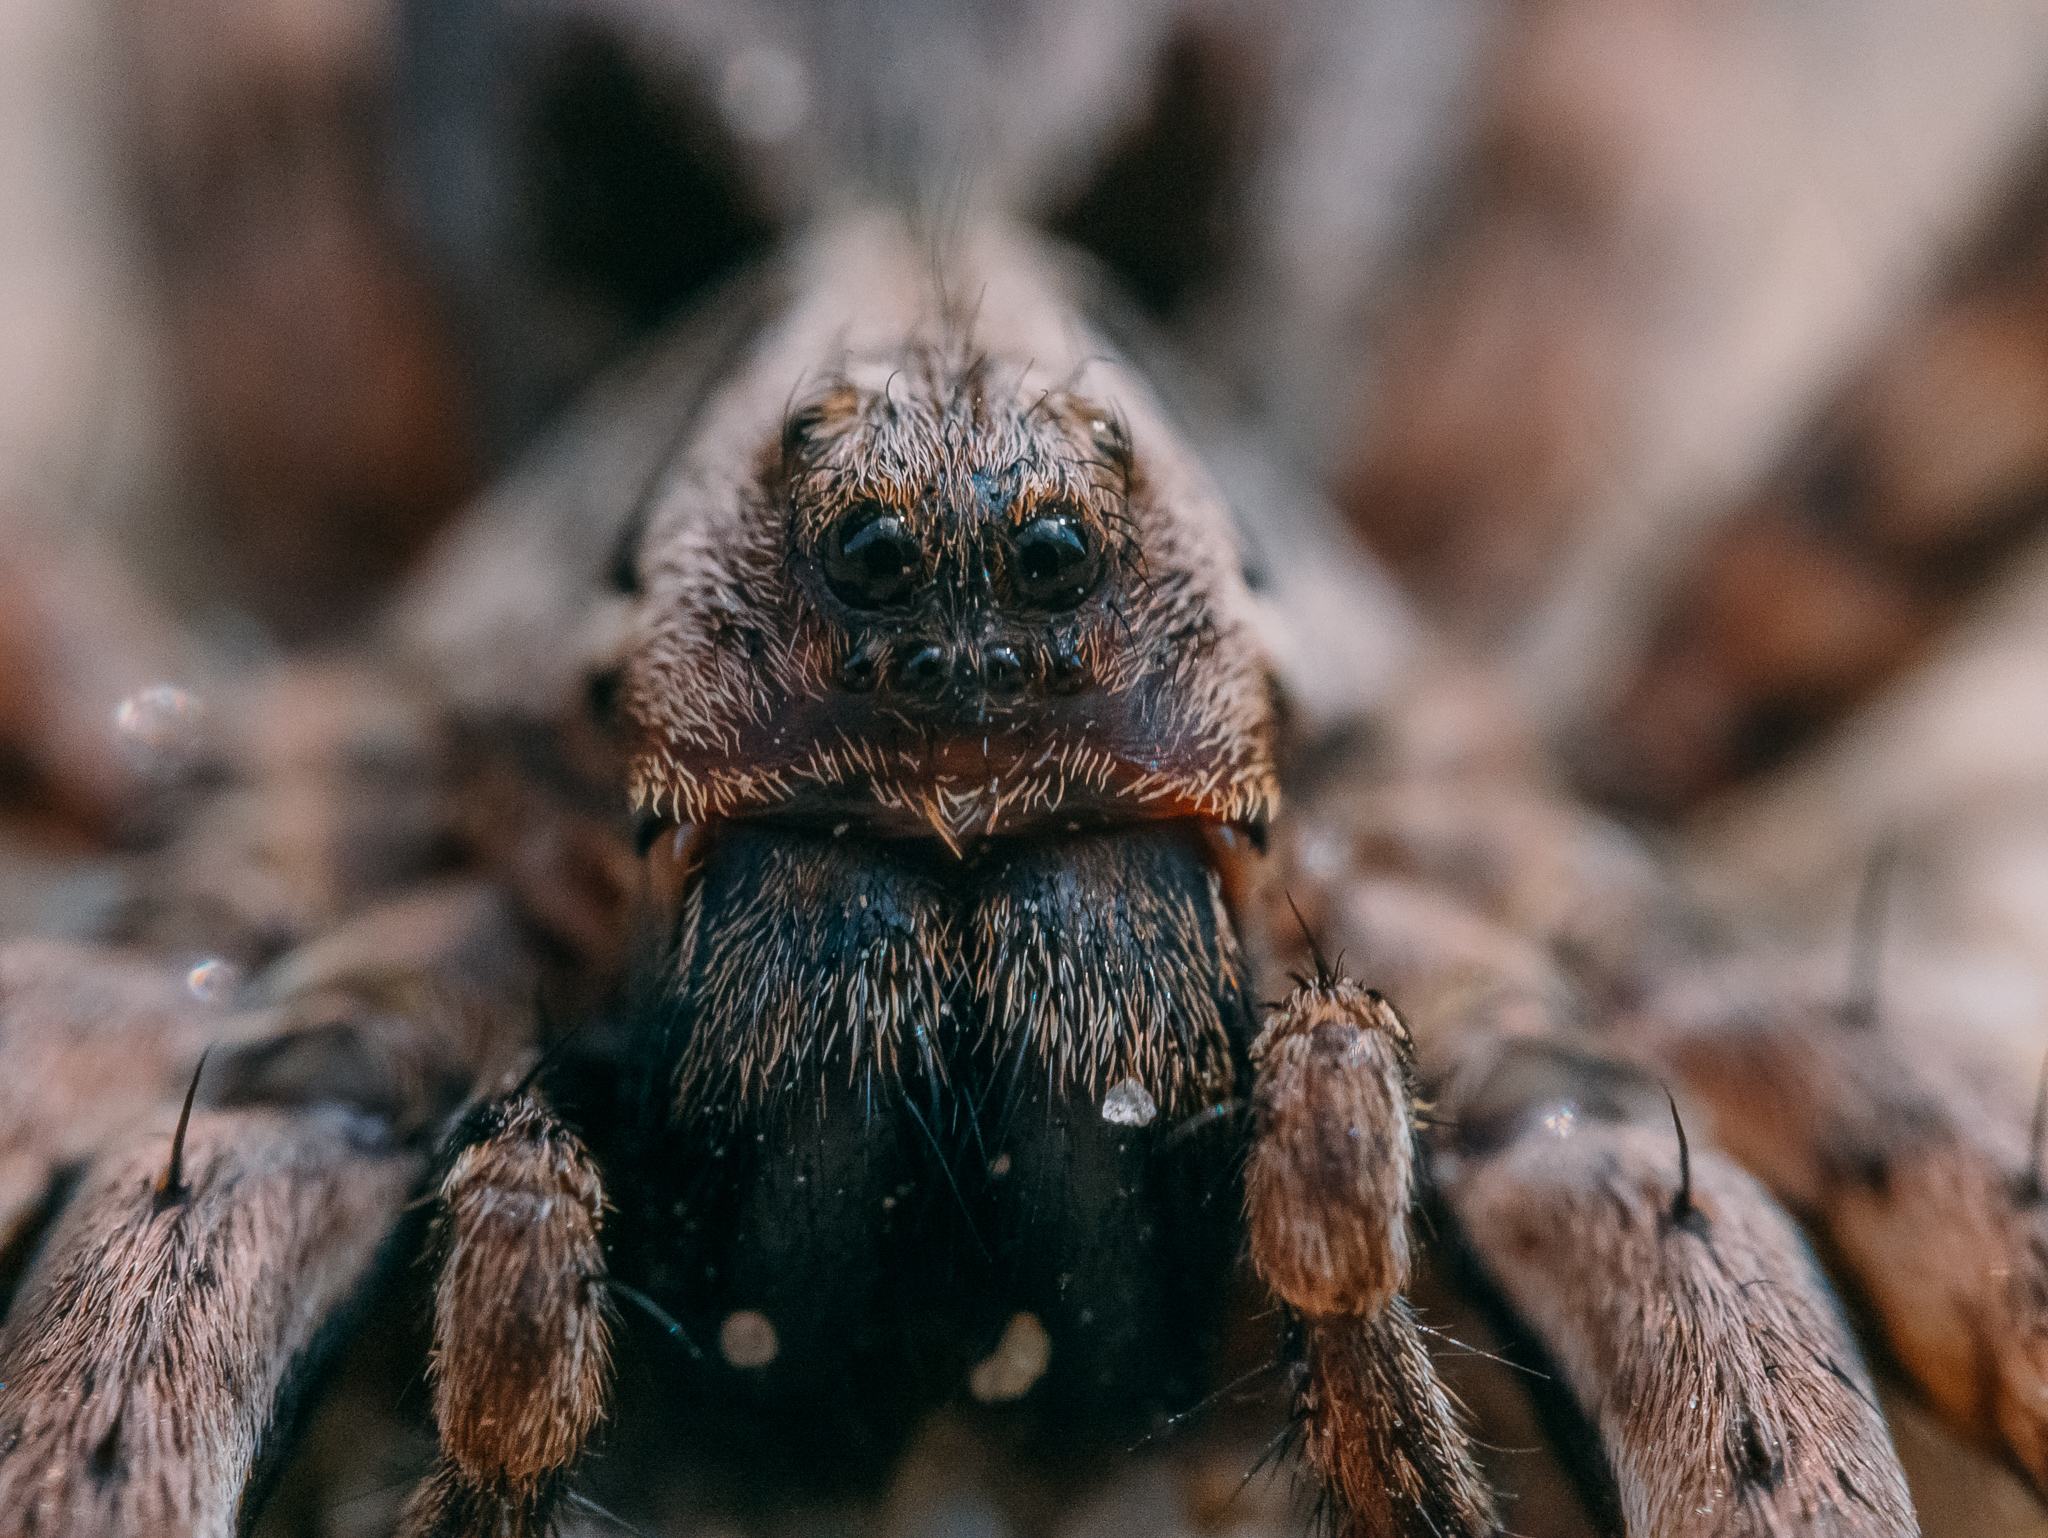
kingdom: Animalia
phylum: Arthropoda
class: Arachnida
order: Araneae
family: Lycosidae
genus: Alopecosa
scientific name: Alopecosa inquilina
